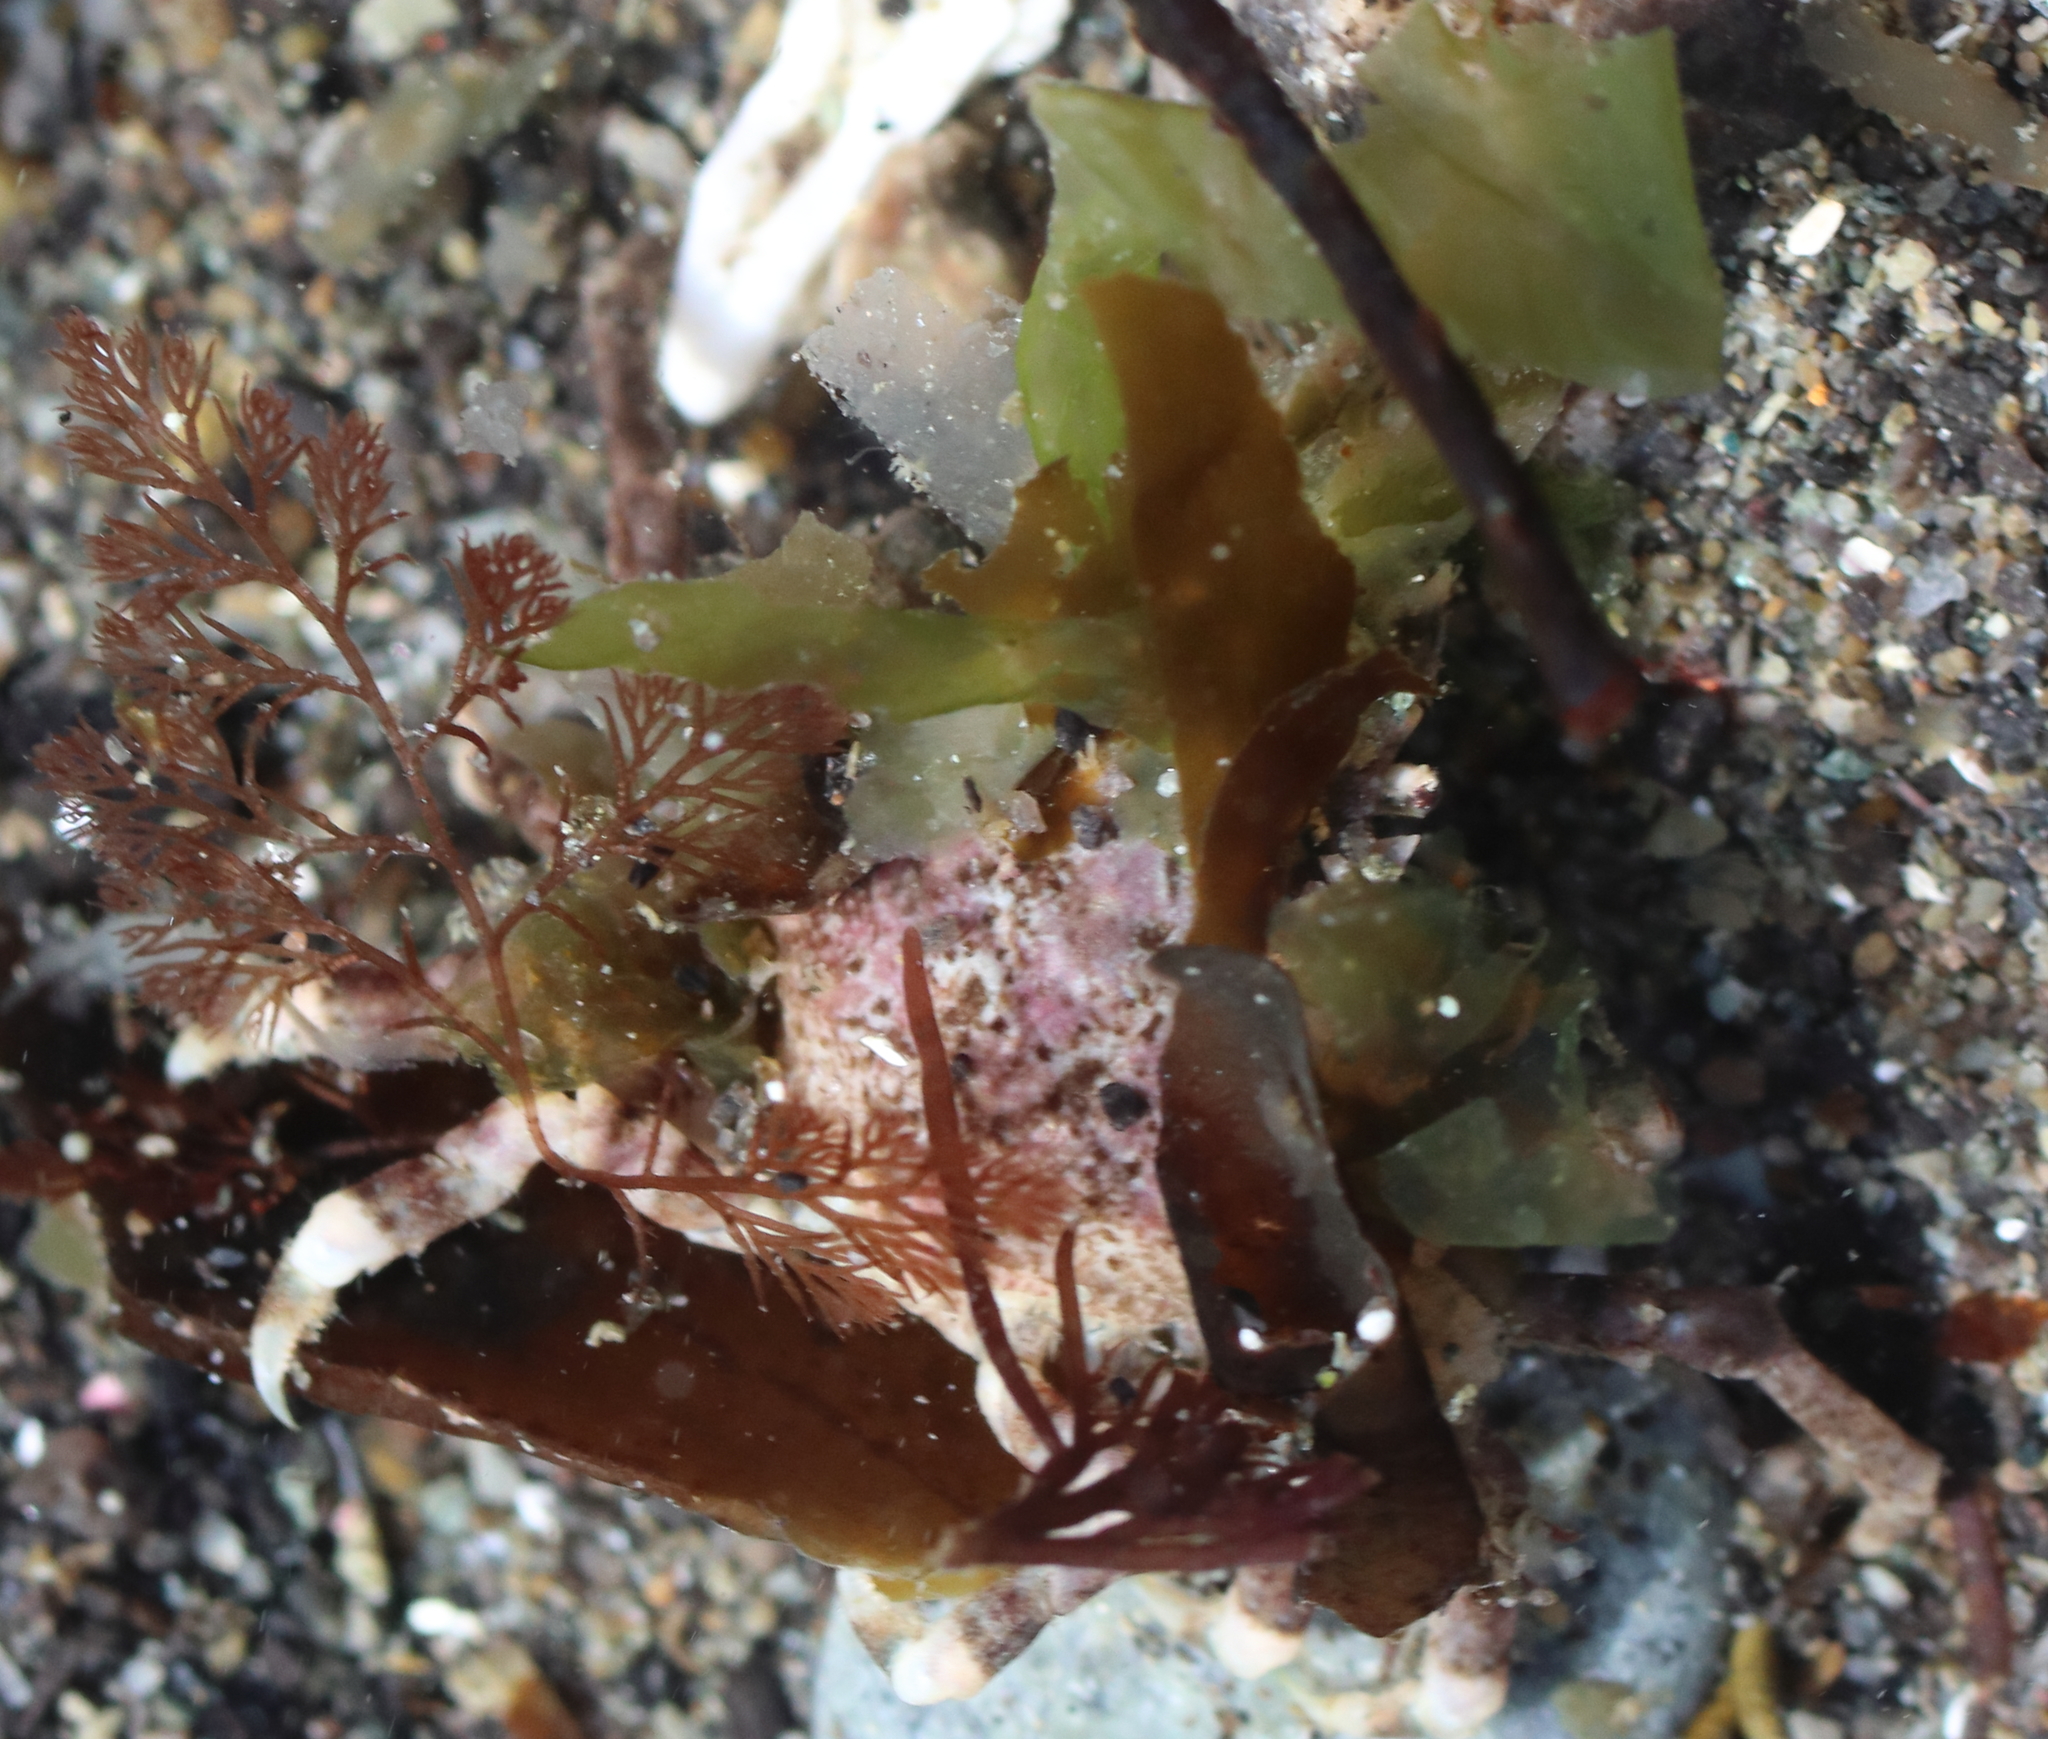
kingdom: Animalia
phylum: Arthropoda
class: Malacostraca
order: Decapoda
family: Epialtidae
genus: Pugettia
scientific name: Pugettia gracilis
